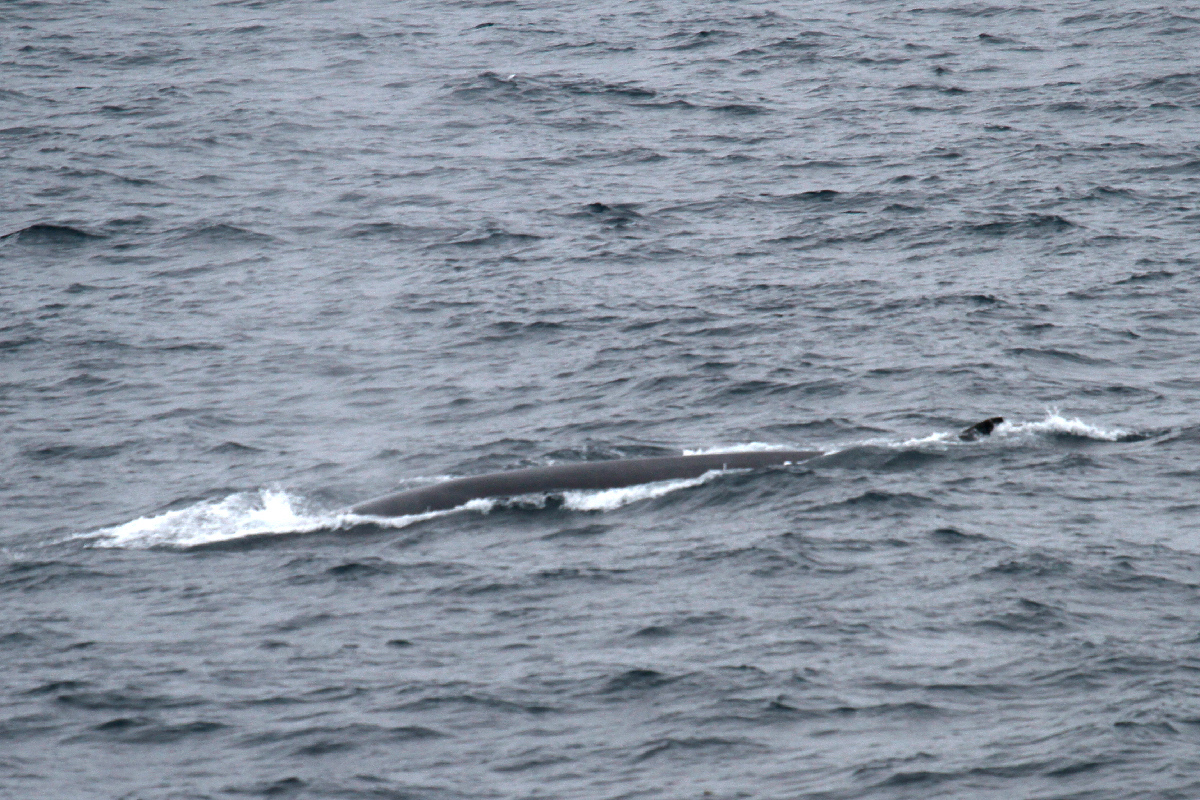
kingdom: Animalia
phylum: Chordata
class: Mammalia
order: Cetacea
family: Balaenopteridae
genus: Balaenoptera
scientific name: Balaenoptera physalus
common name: Fin whale
